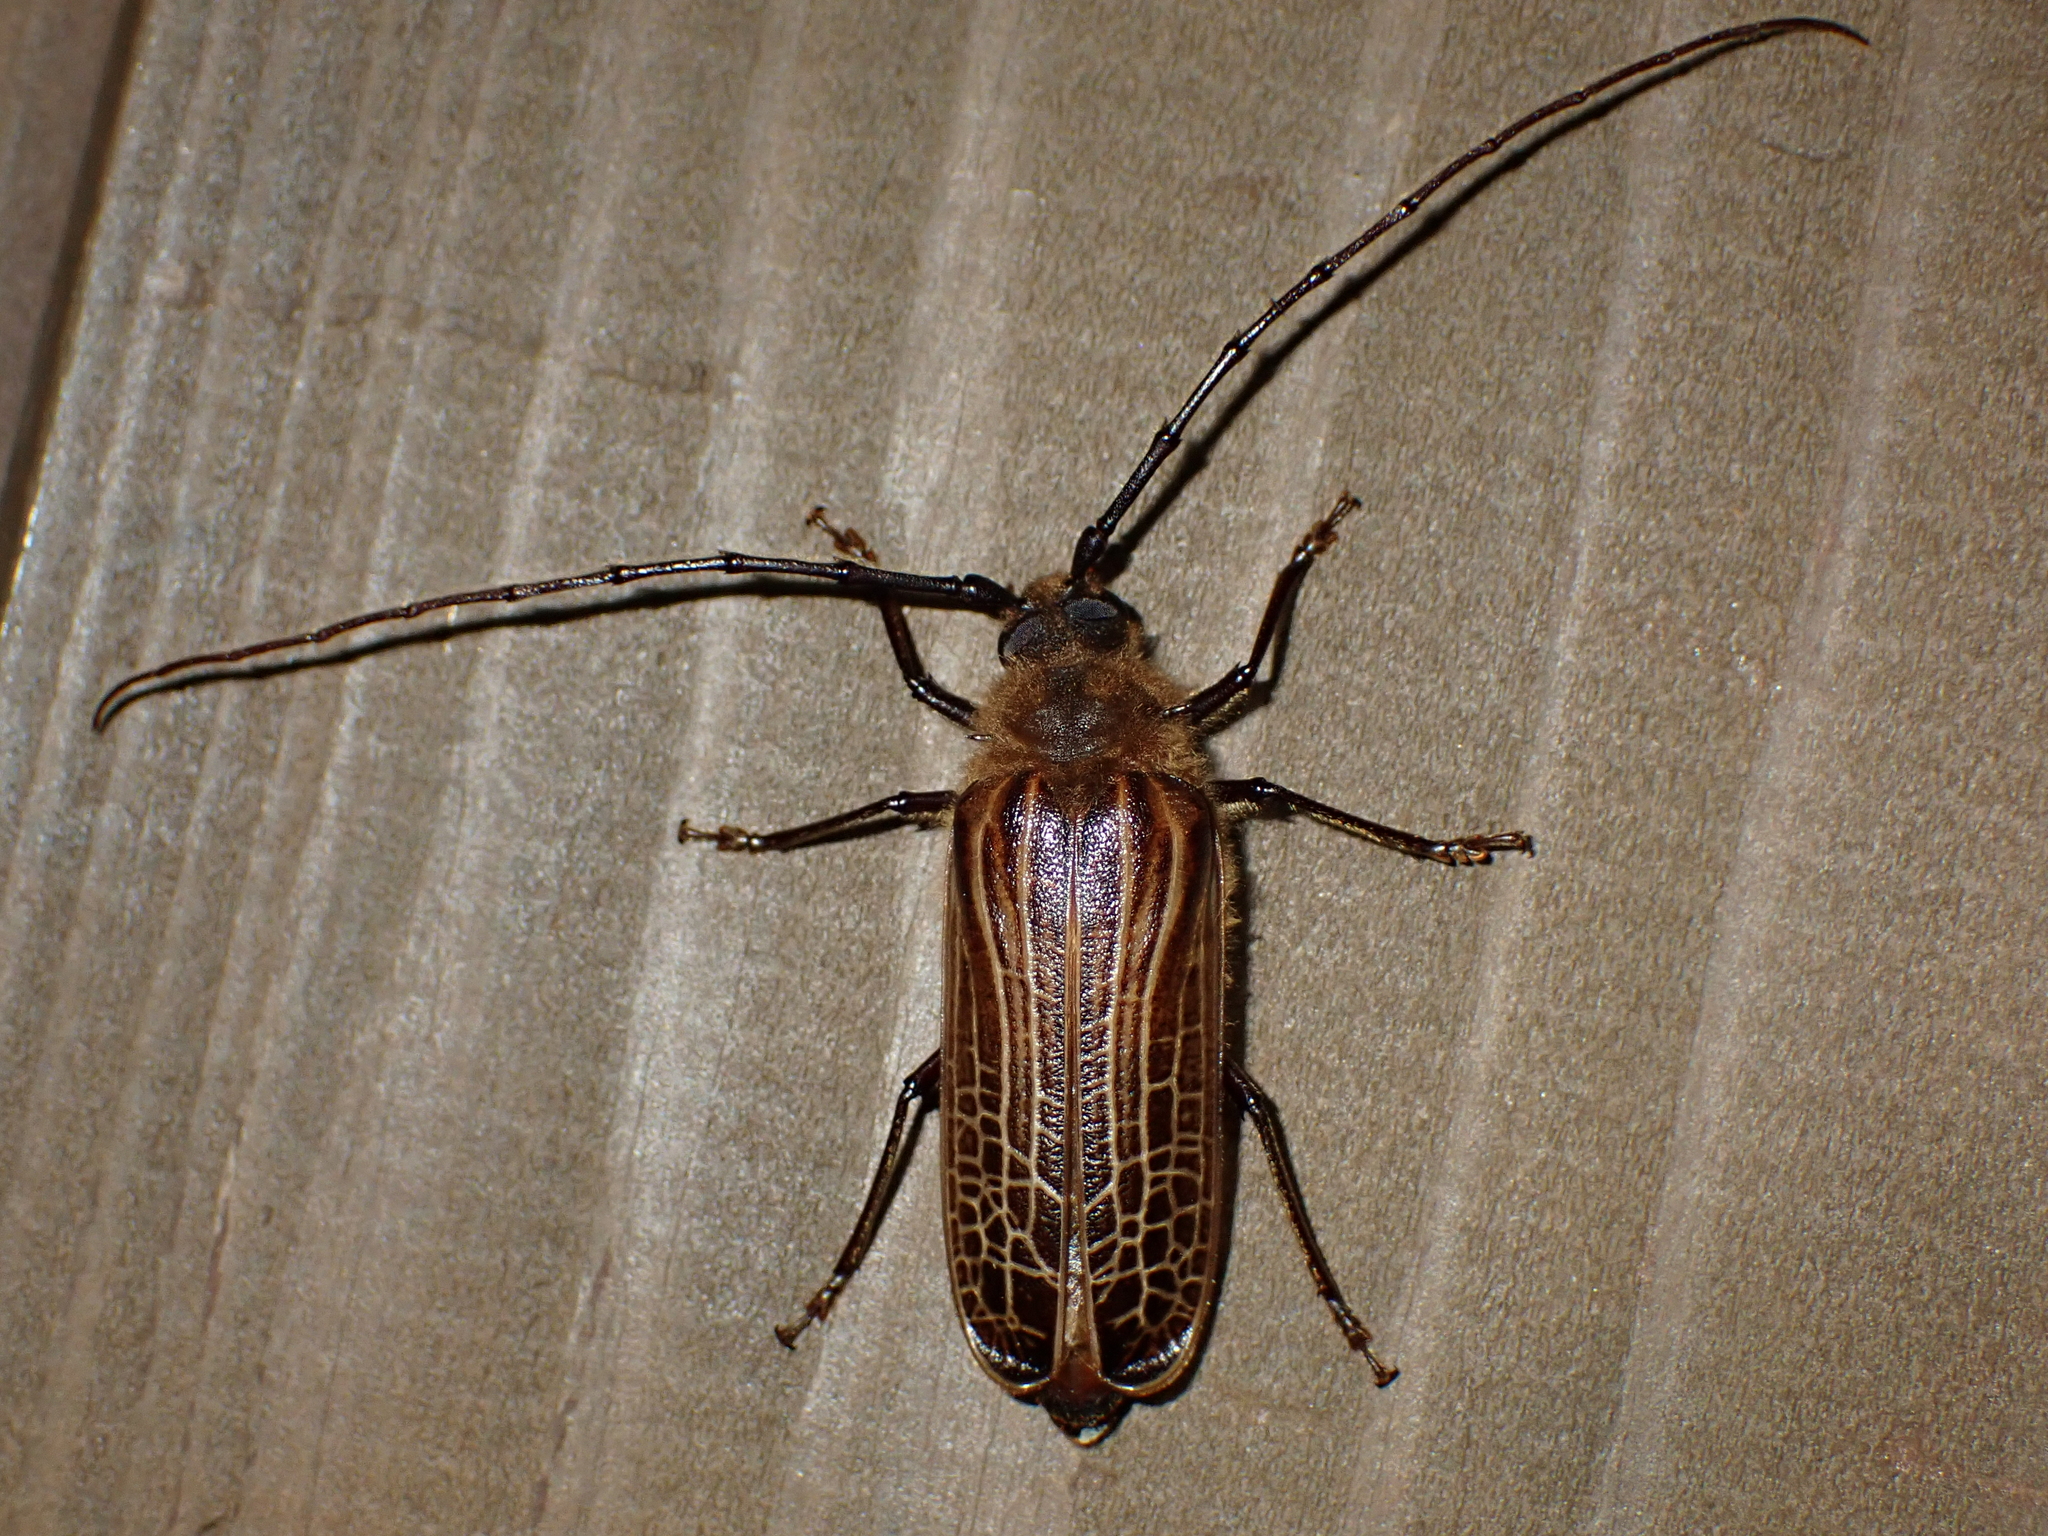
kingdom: Animalia
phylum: Arthropoda
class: Insecta
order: Coleoptera
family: Cerambycidae
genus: Prionoplus
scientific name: Prionoplus reticularis
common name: Huhu beetle
